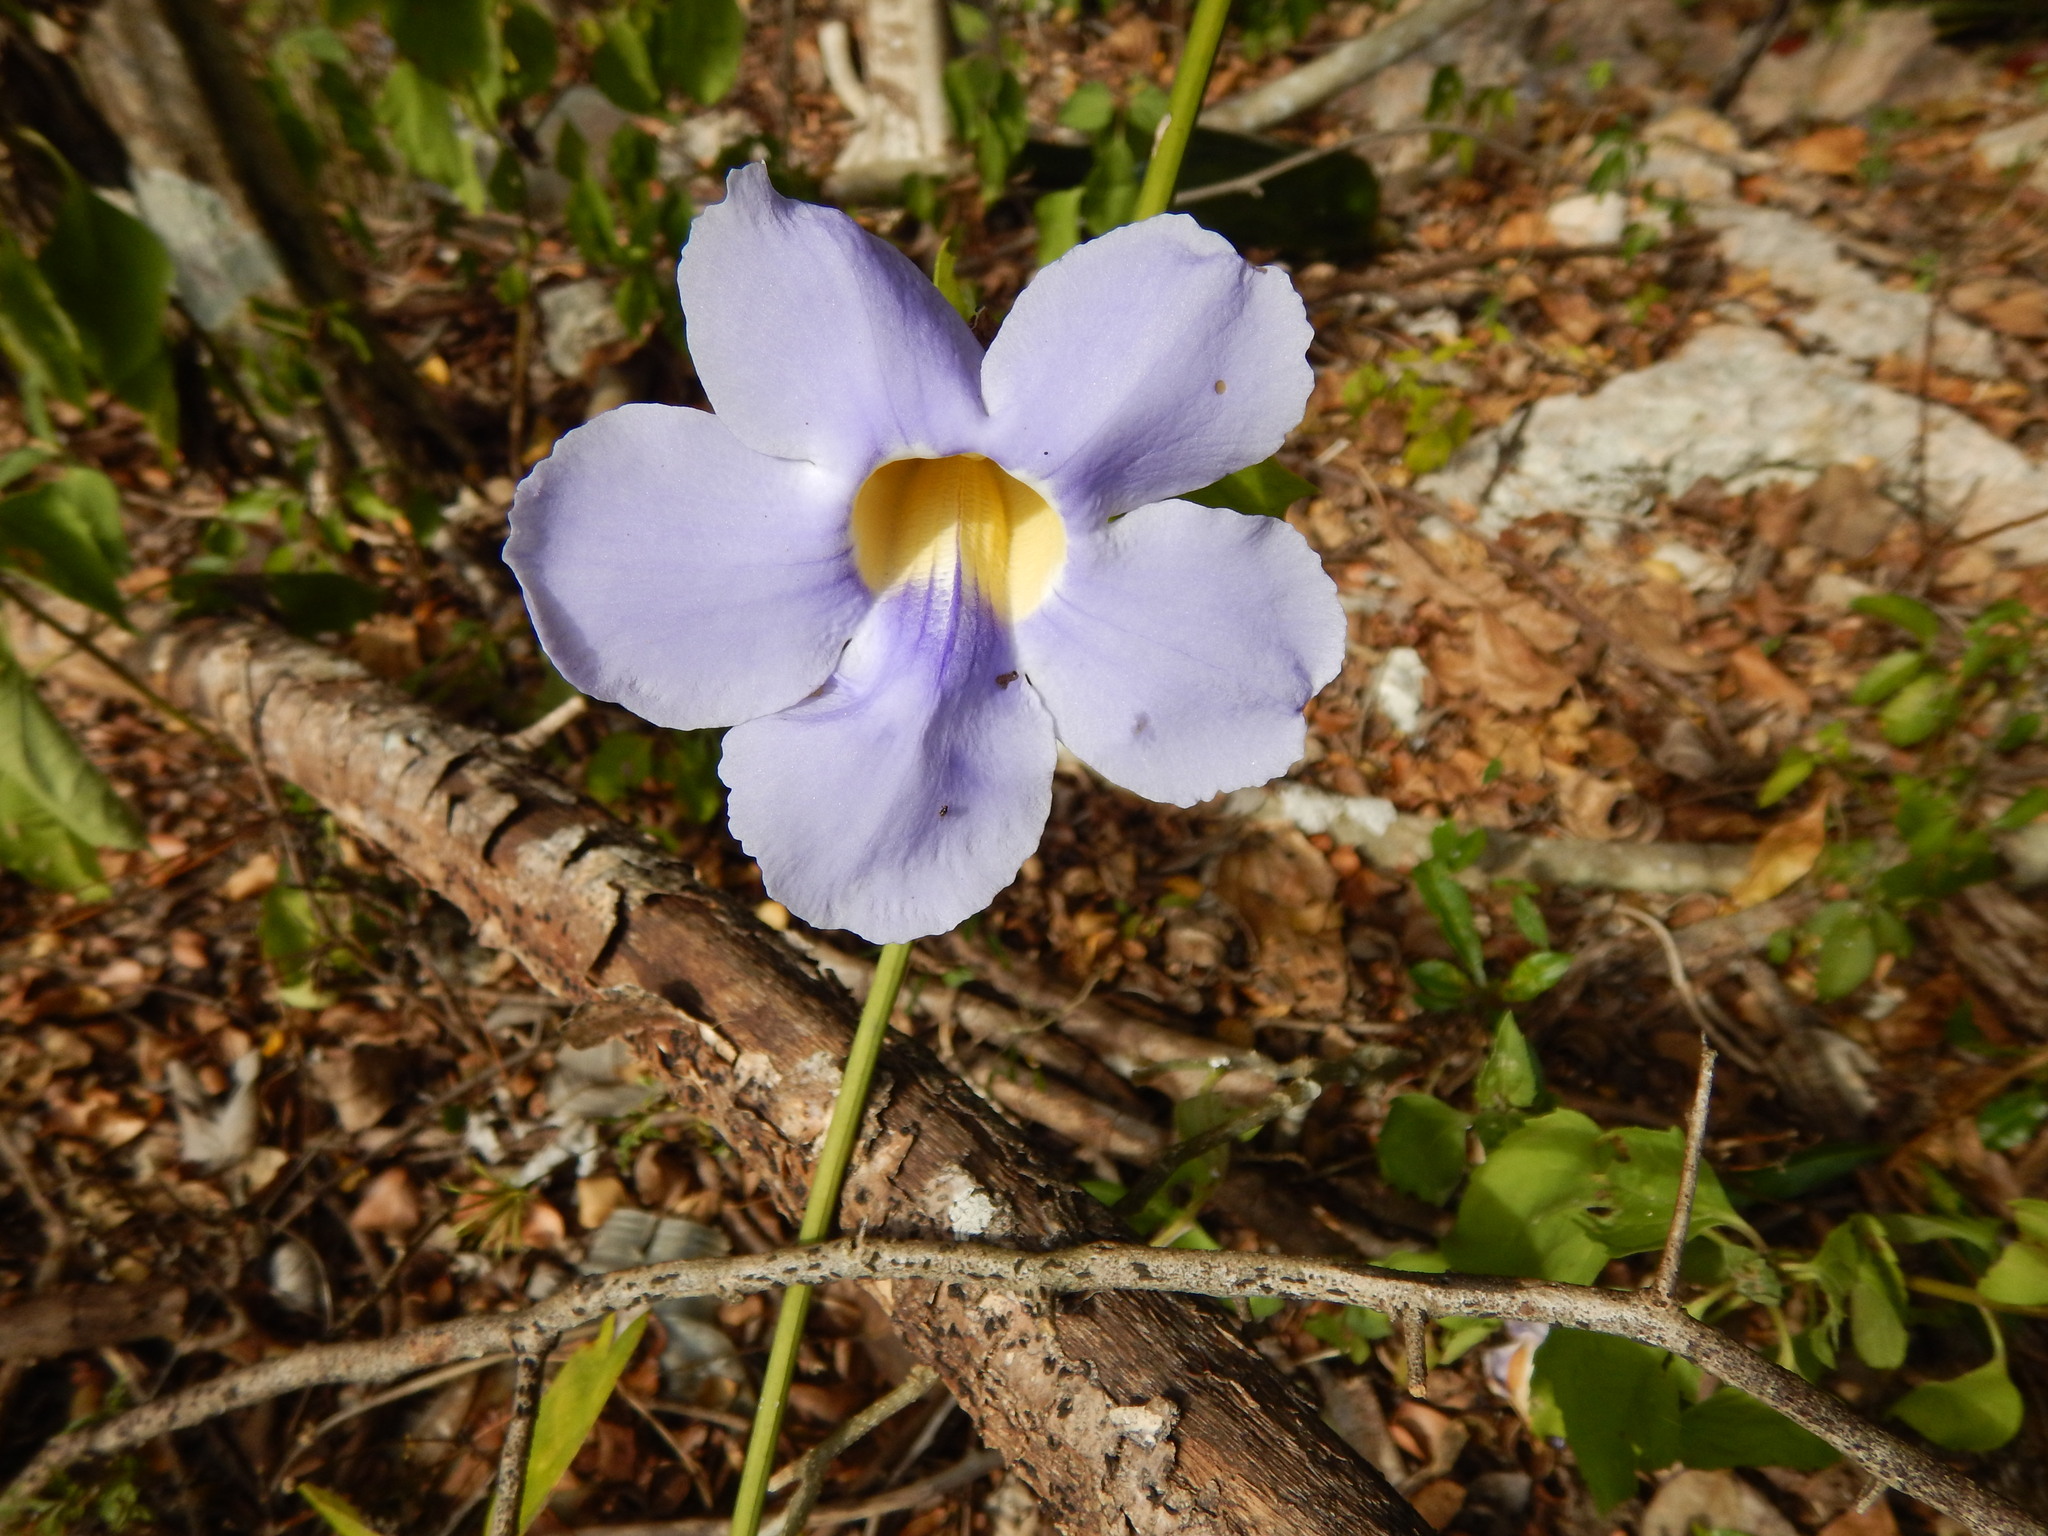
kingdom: Plantae
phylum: Tracheophyta
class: Magnoliopsida
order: Lamiales
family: Acanthaceae
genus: Thunbergia
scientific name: Thunbergia grandiflora
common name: Bengal trumpet
